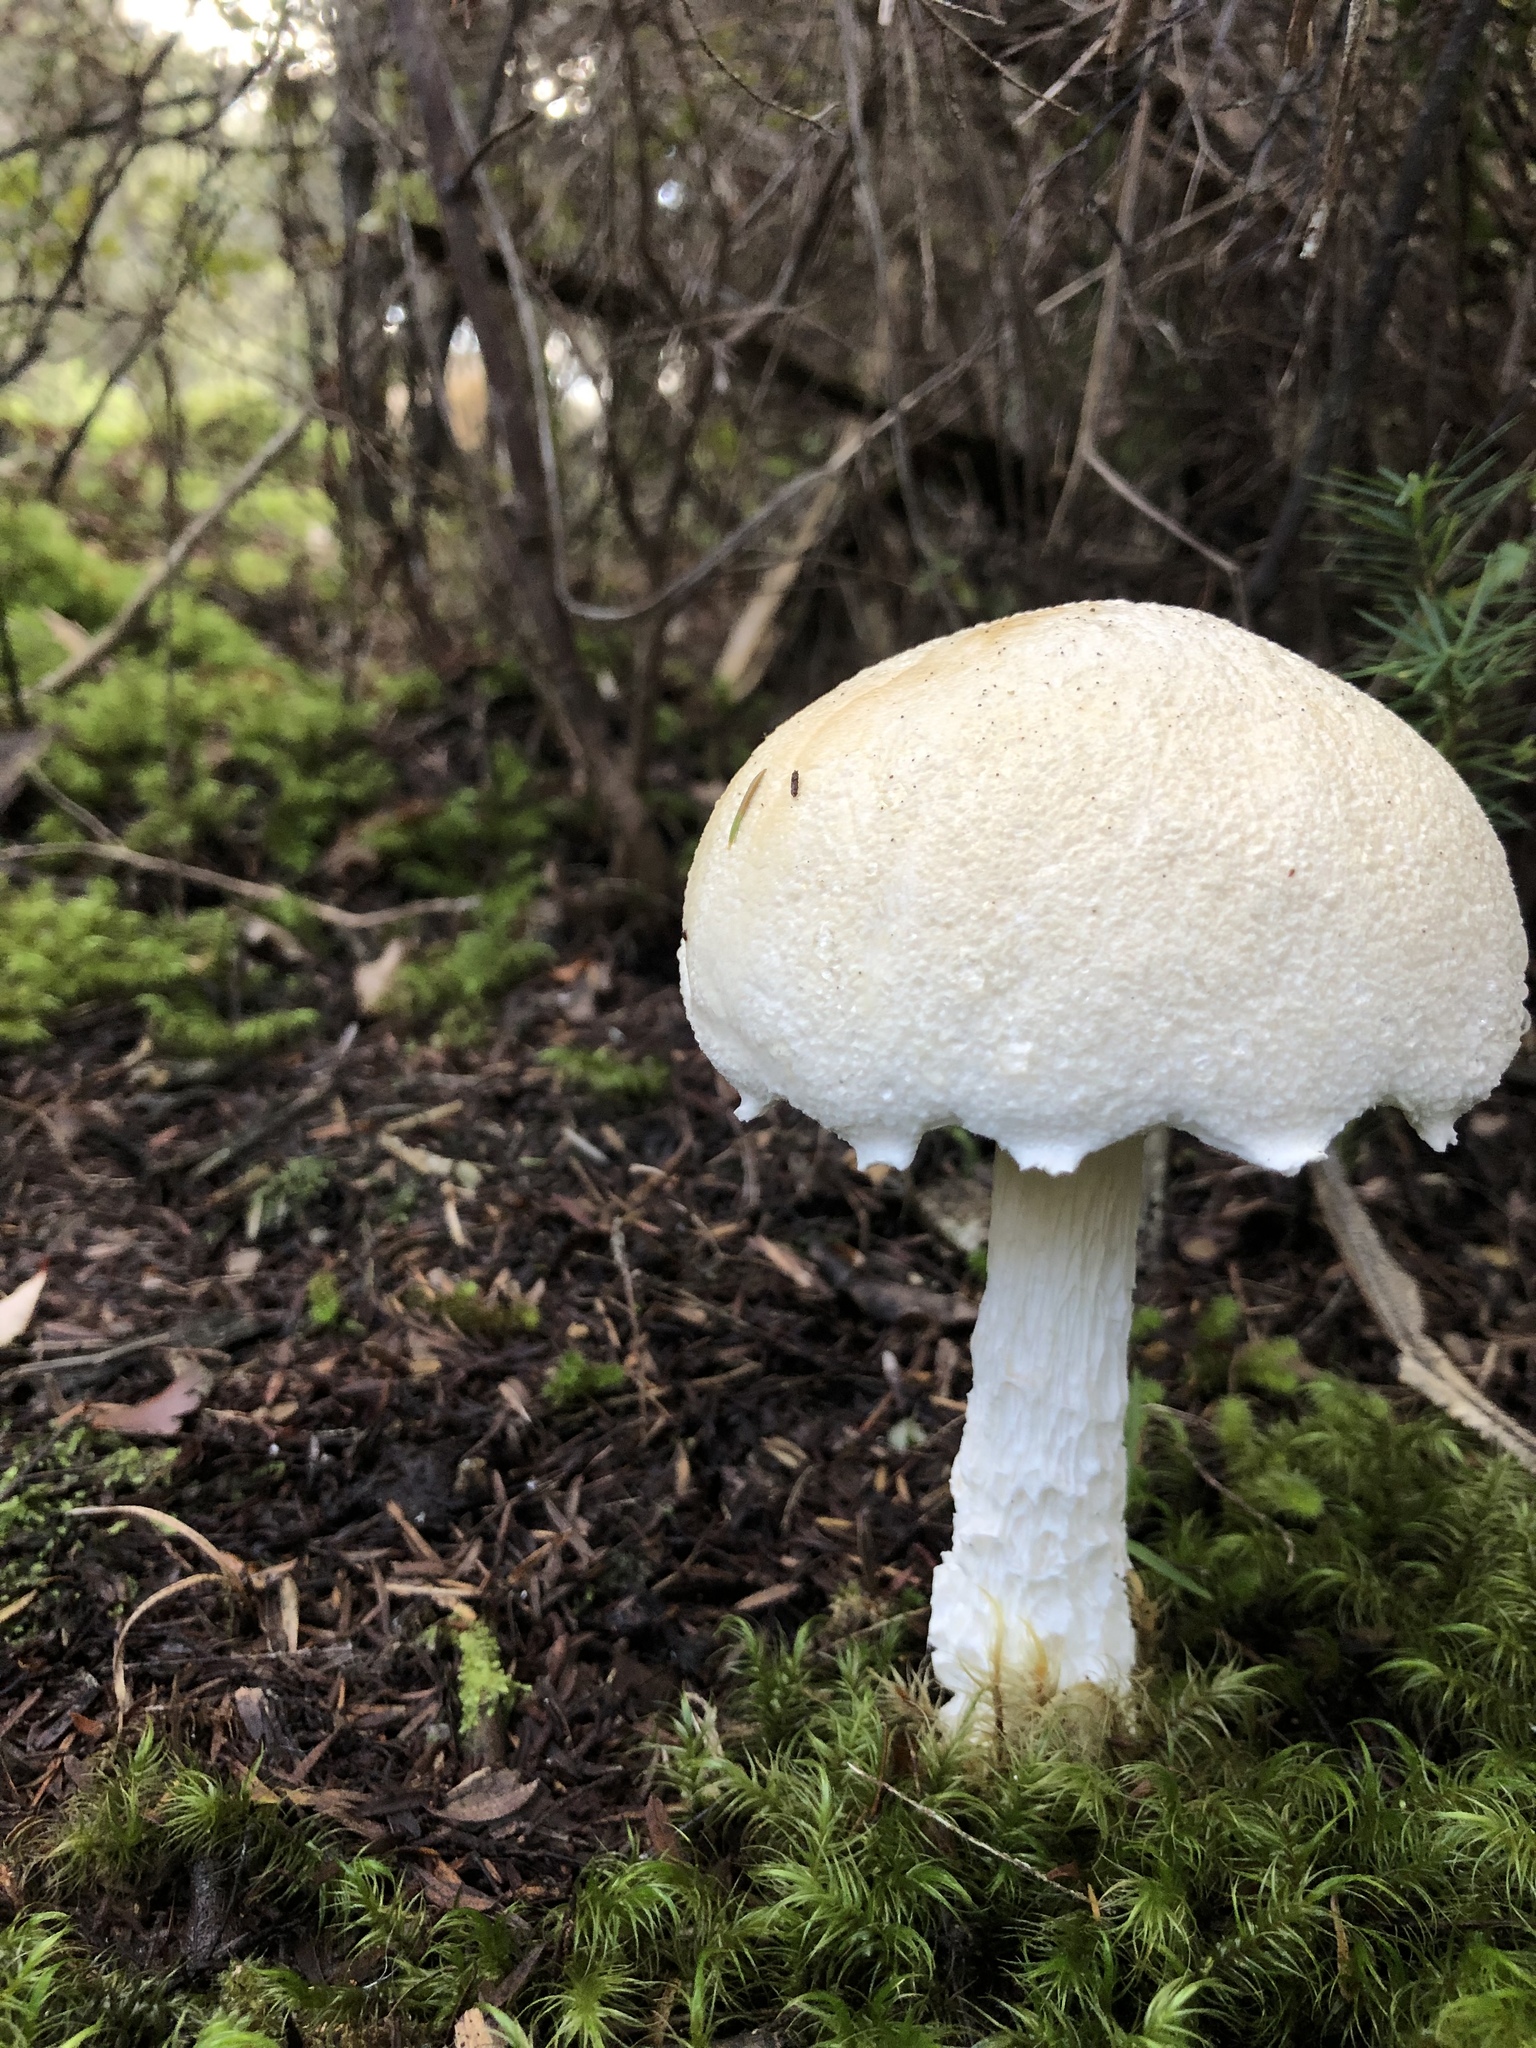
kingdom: Fungi
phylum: Basidiomycota
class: Agaricomycetes
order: Boletales
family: Boletaceae
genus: Fistulinella
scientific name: Fistulinella nivea
